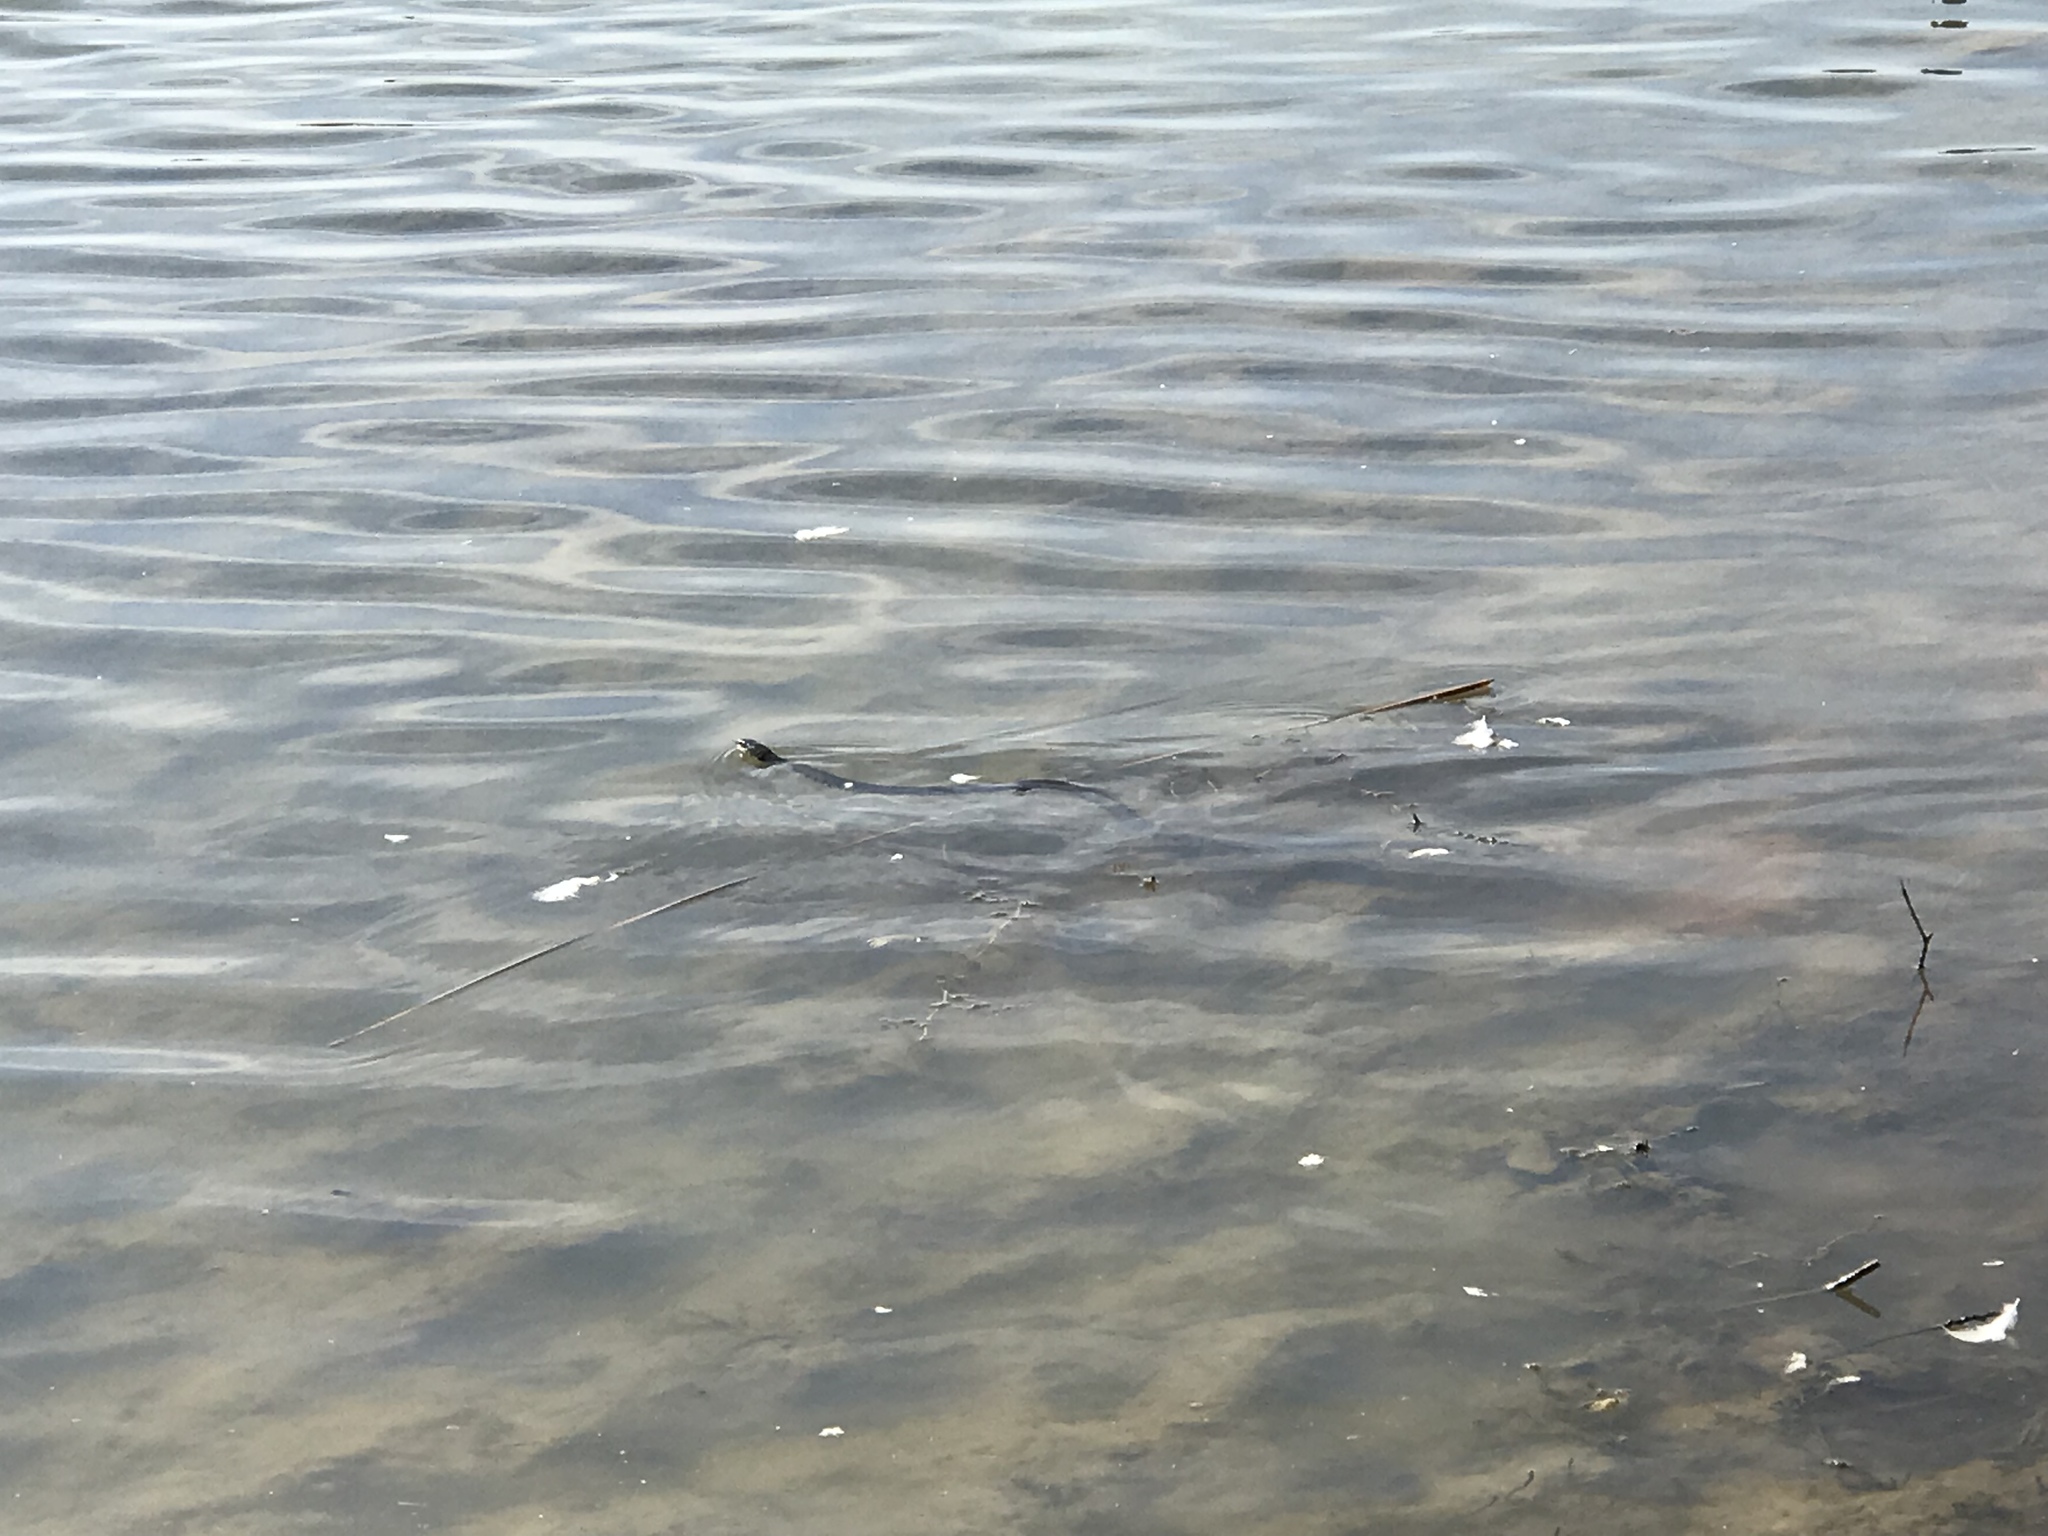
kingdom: Animalia
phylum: Chordata
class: Squamata
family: Colubridae
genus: Natrix
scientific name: Natrix helvetica
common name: Banded grass snake
